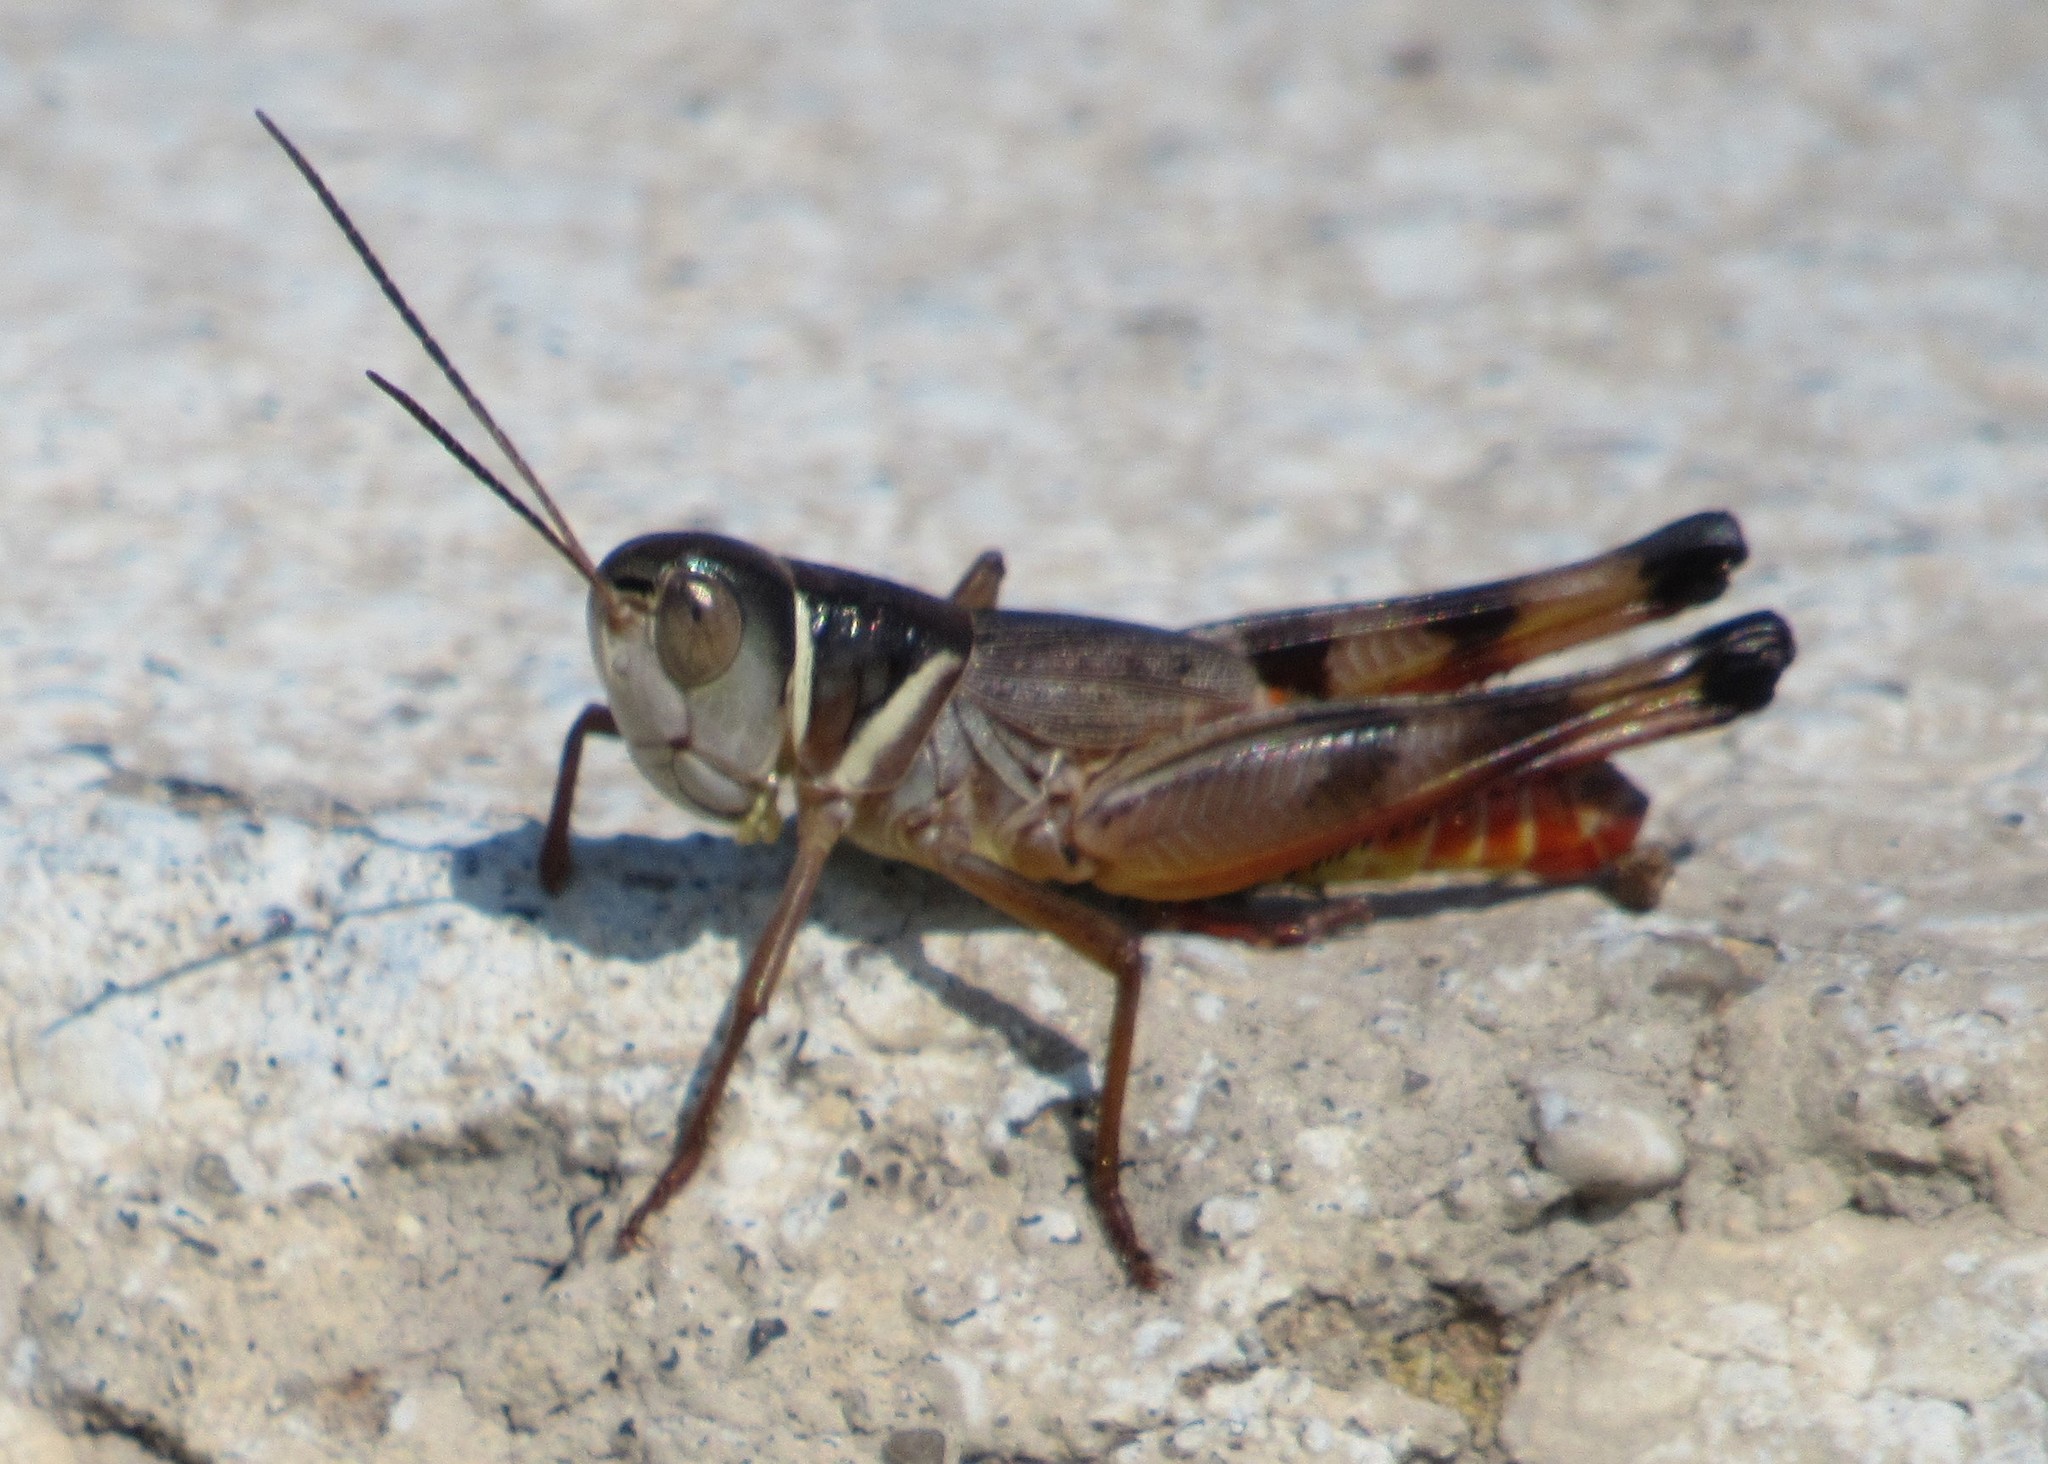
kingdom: Animalia
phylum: Arthropoda
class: Insecta
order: Orthoptera
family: Acrididae
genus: Boopedon
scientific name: Boopedon auriventris
